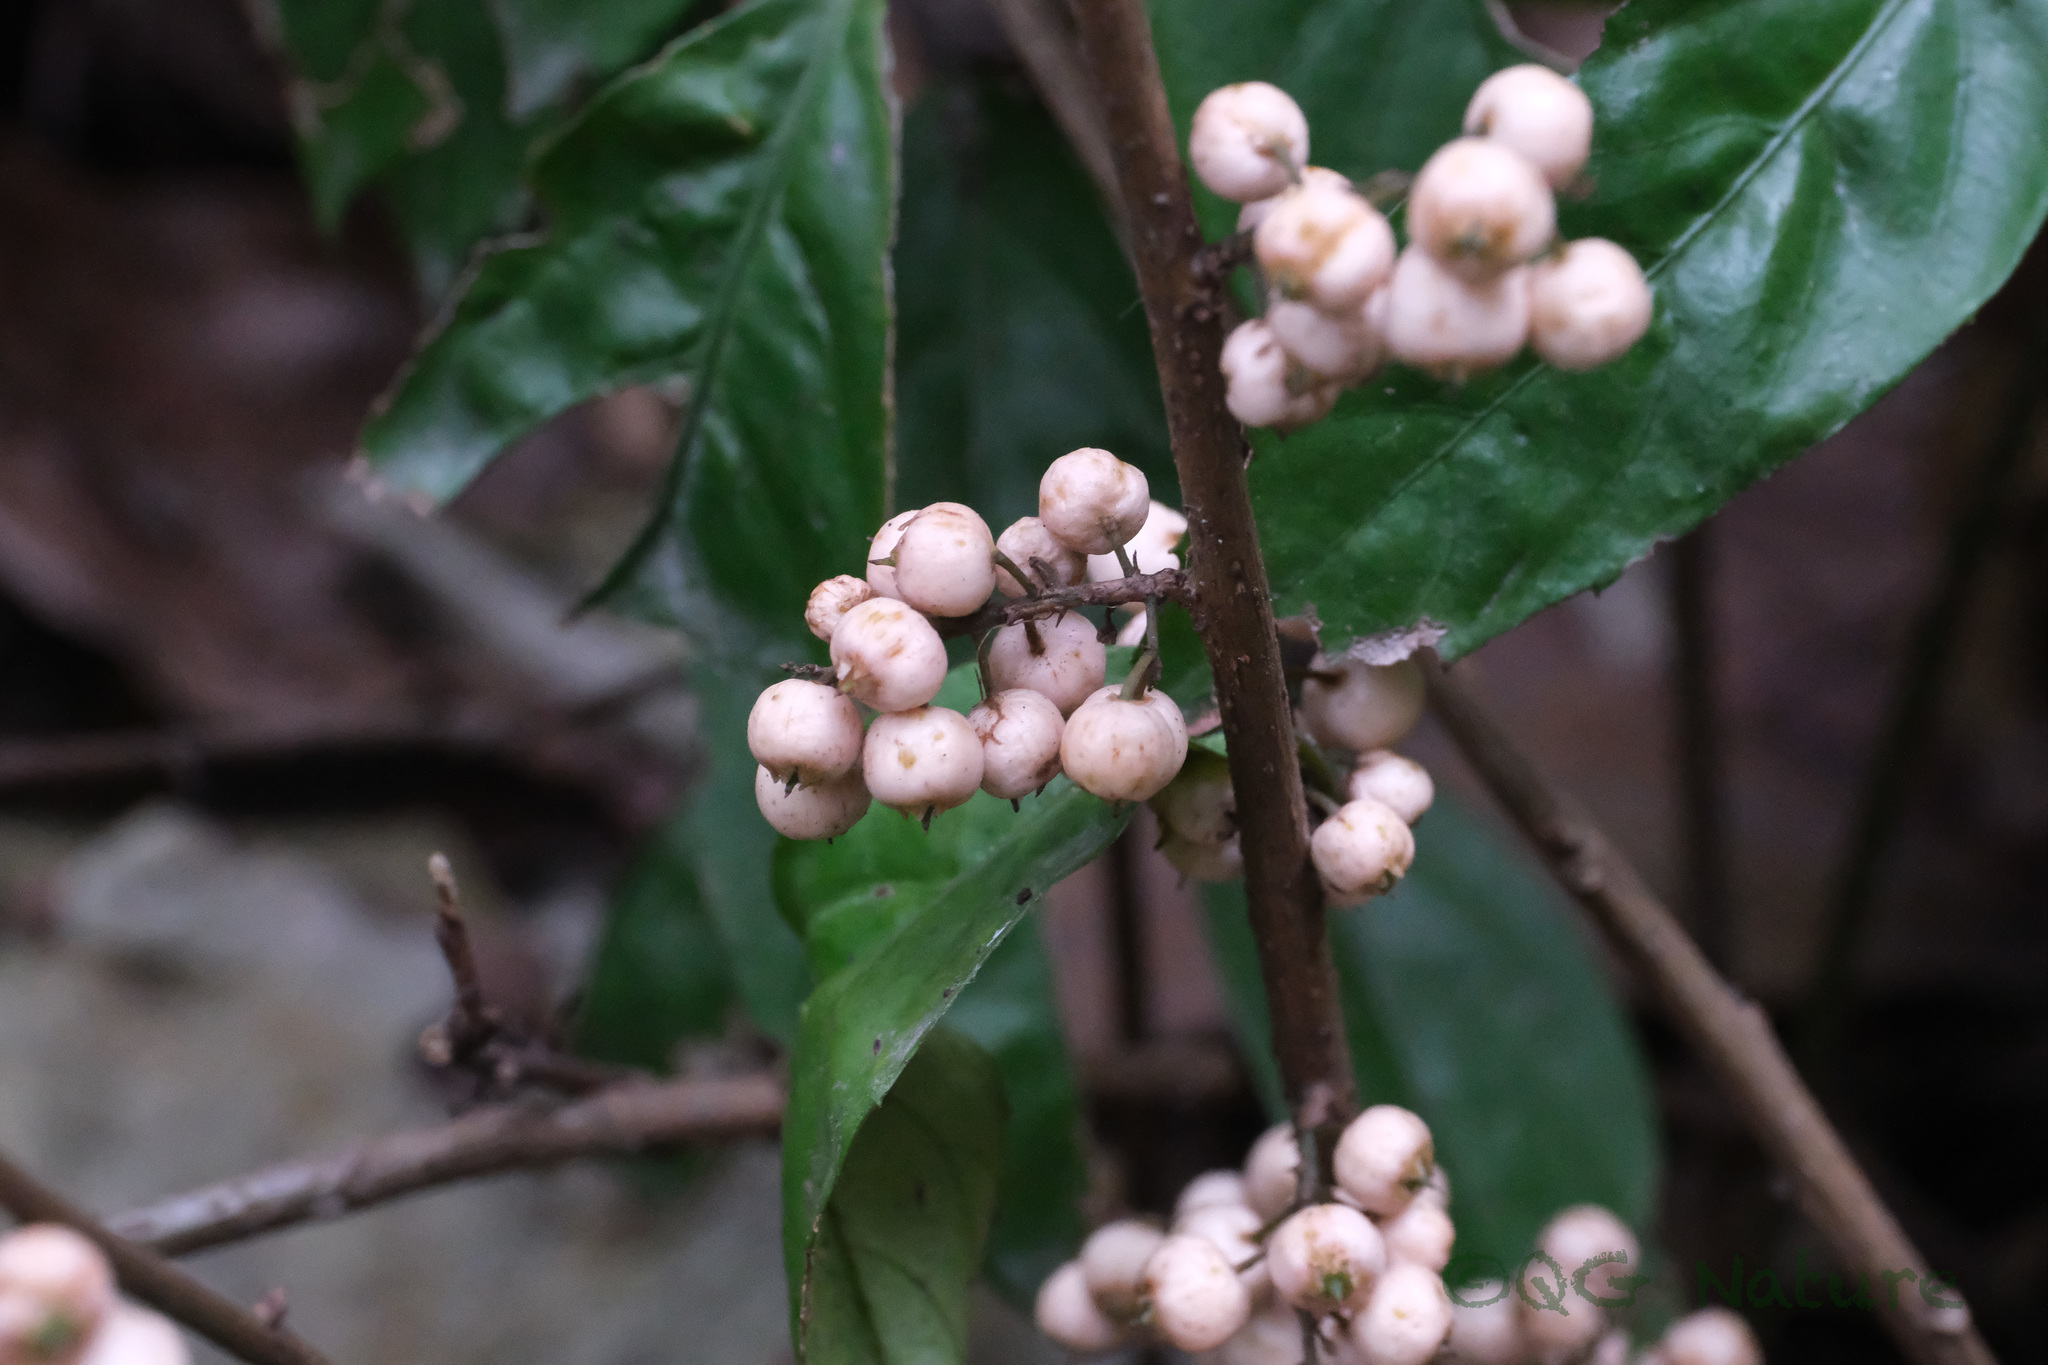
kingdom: Plantae
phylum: Tracheophyta
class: Magnoliopsida
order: Ericales
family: Primulaceae
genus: Maesa
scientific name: Maesa japonica
